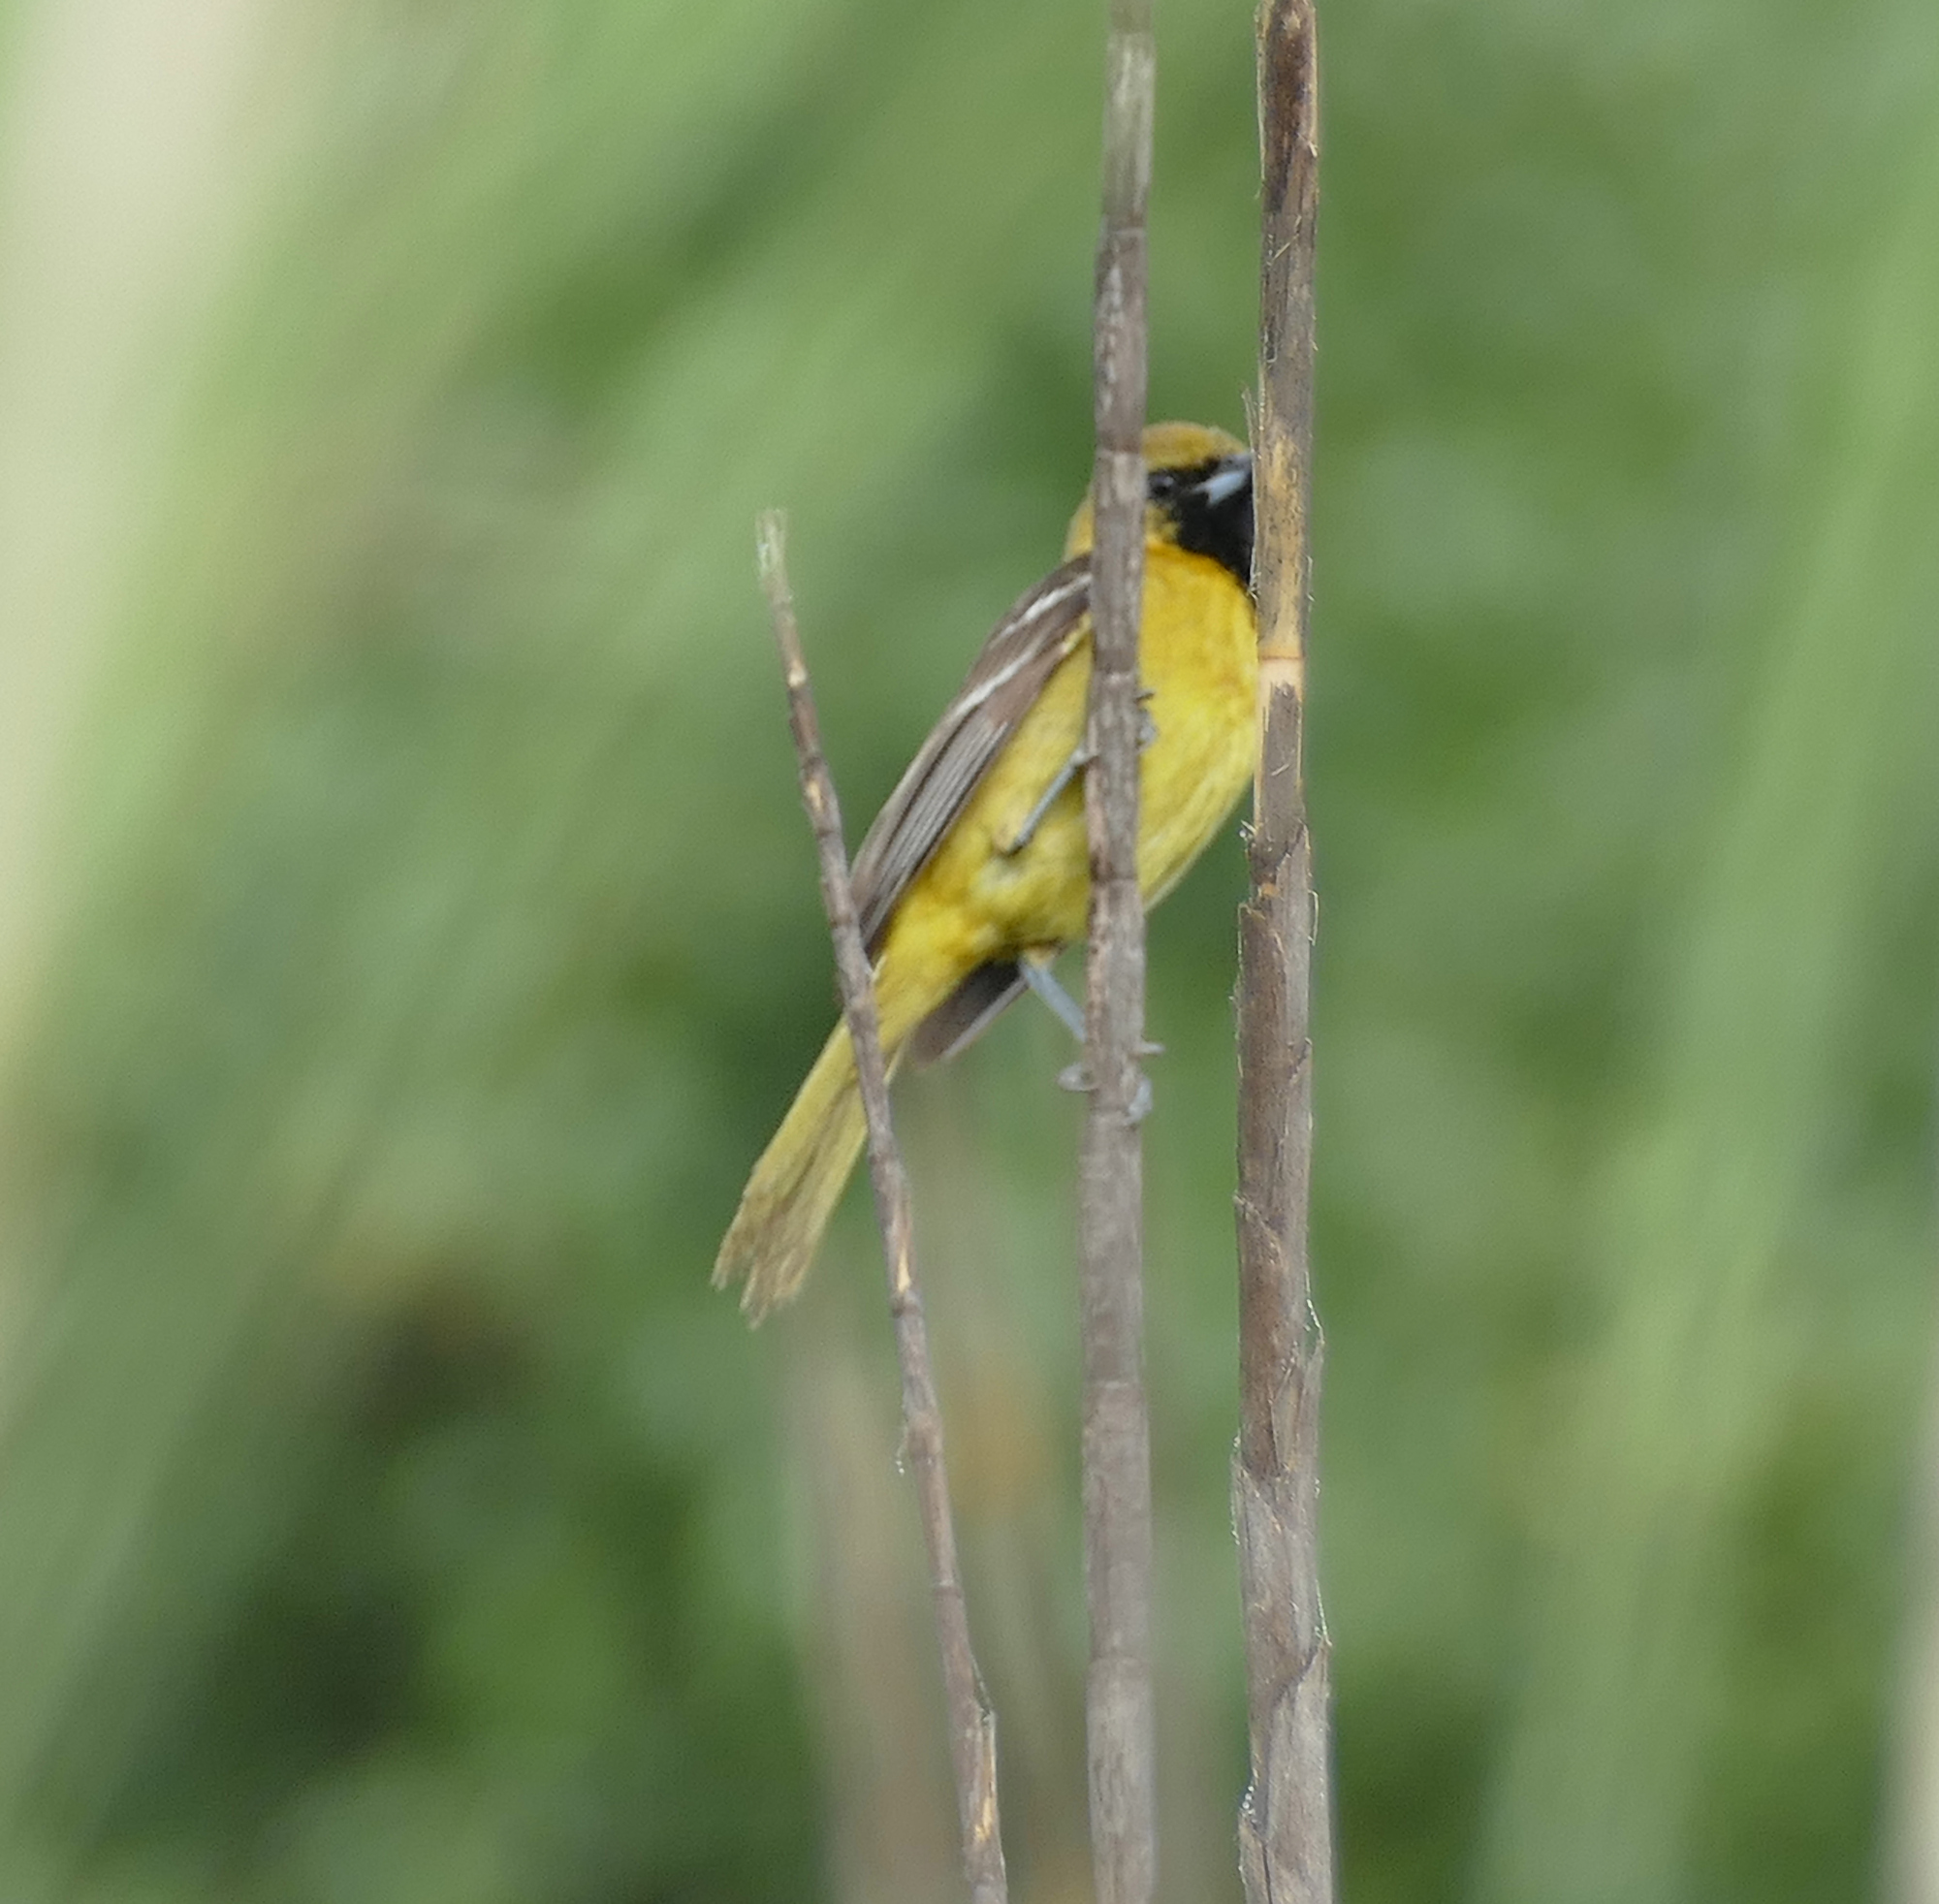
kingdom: Animalia
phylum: Chordata
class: Aves
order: Passeriformes
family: Icteridae
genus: Icterus
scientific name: Icterus spurius
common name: Orchard oriole
